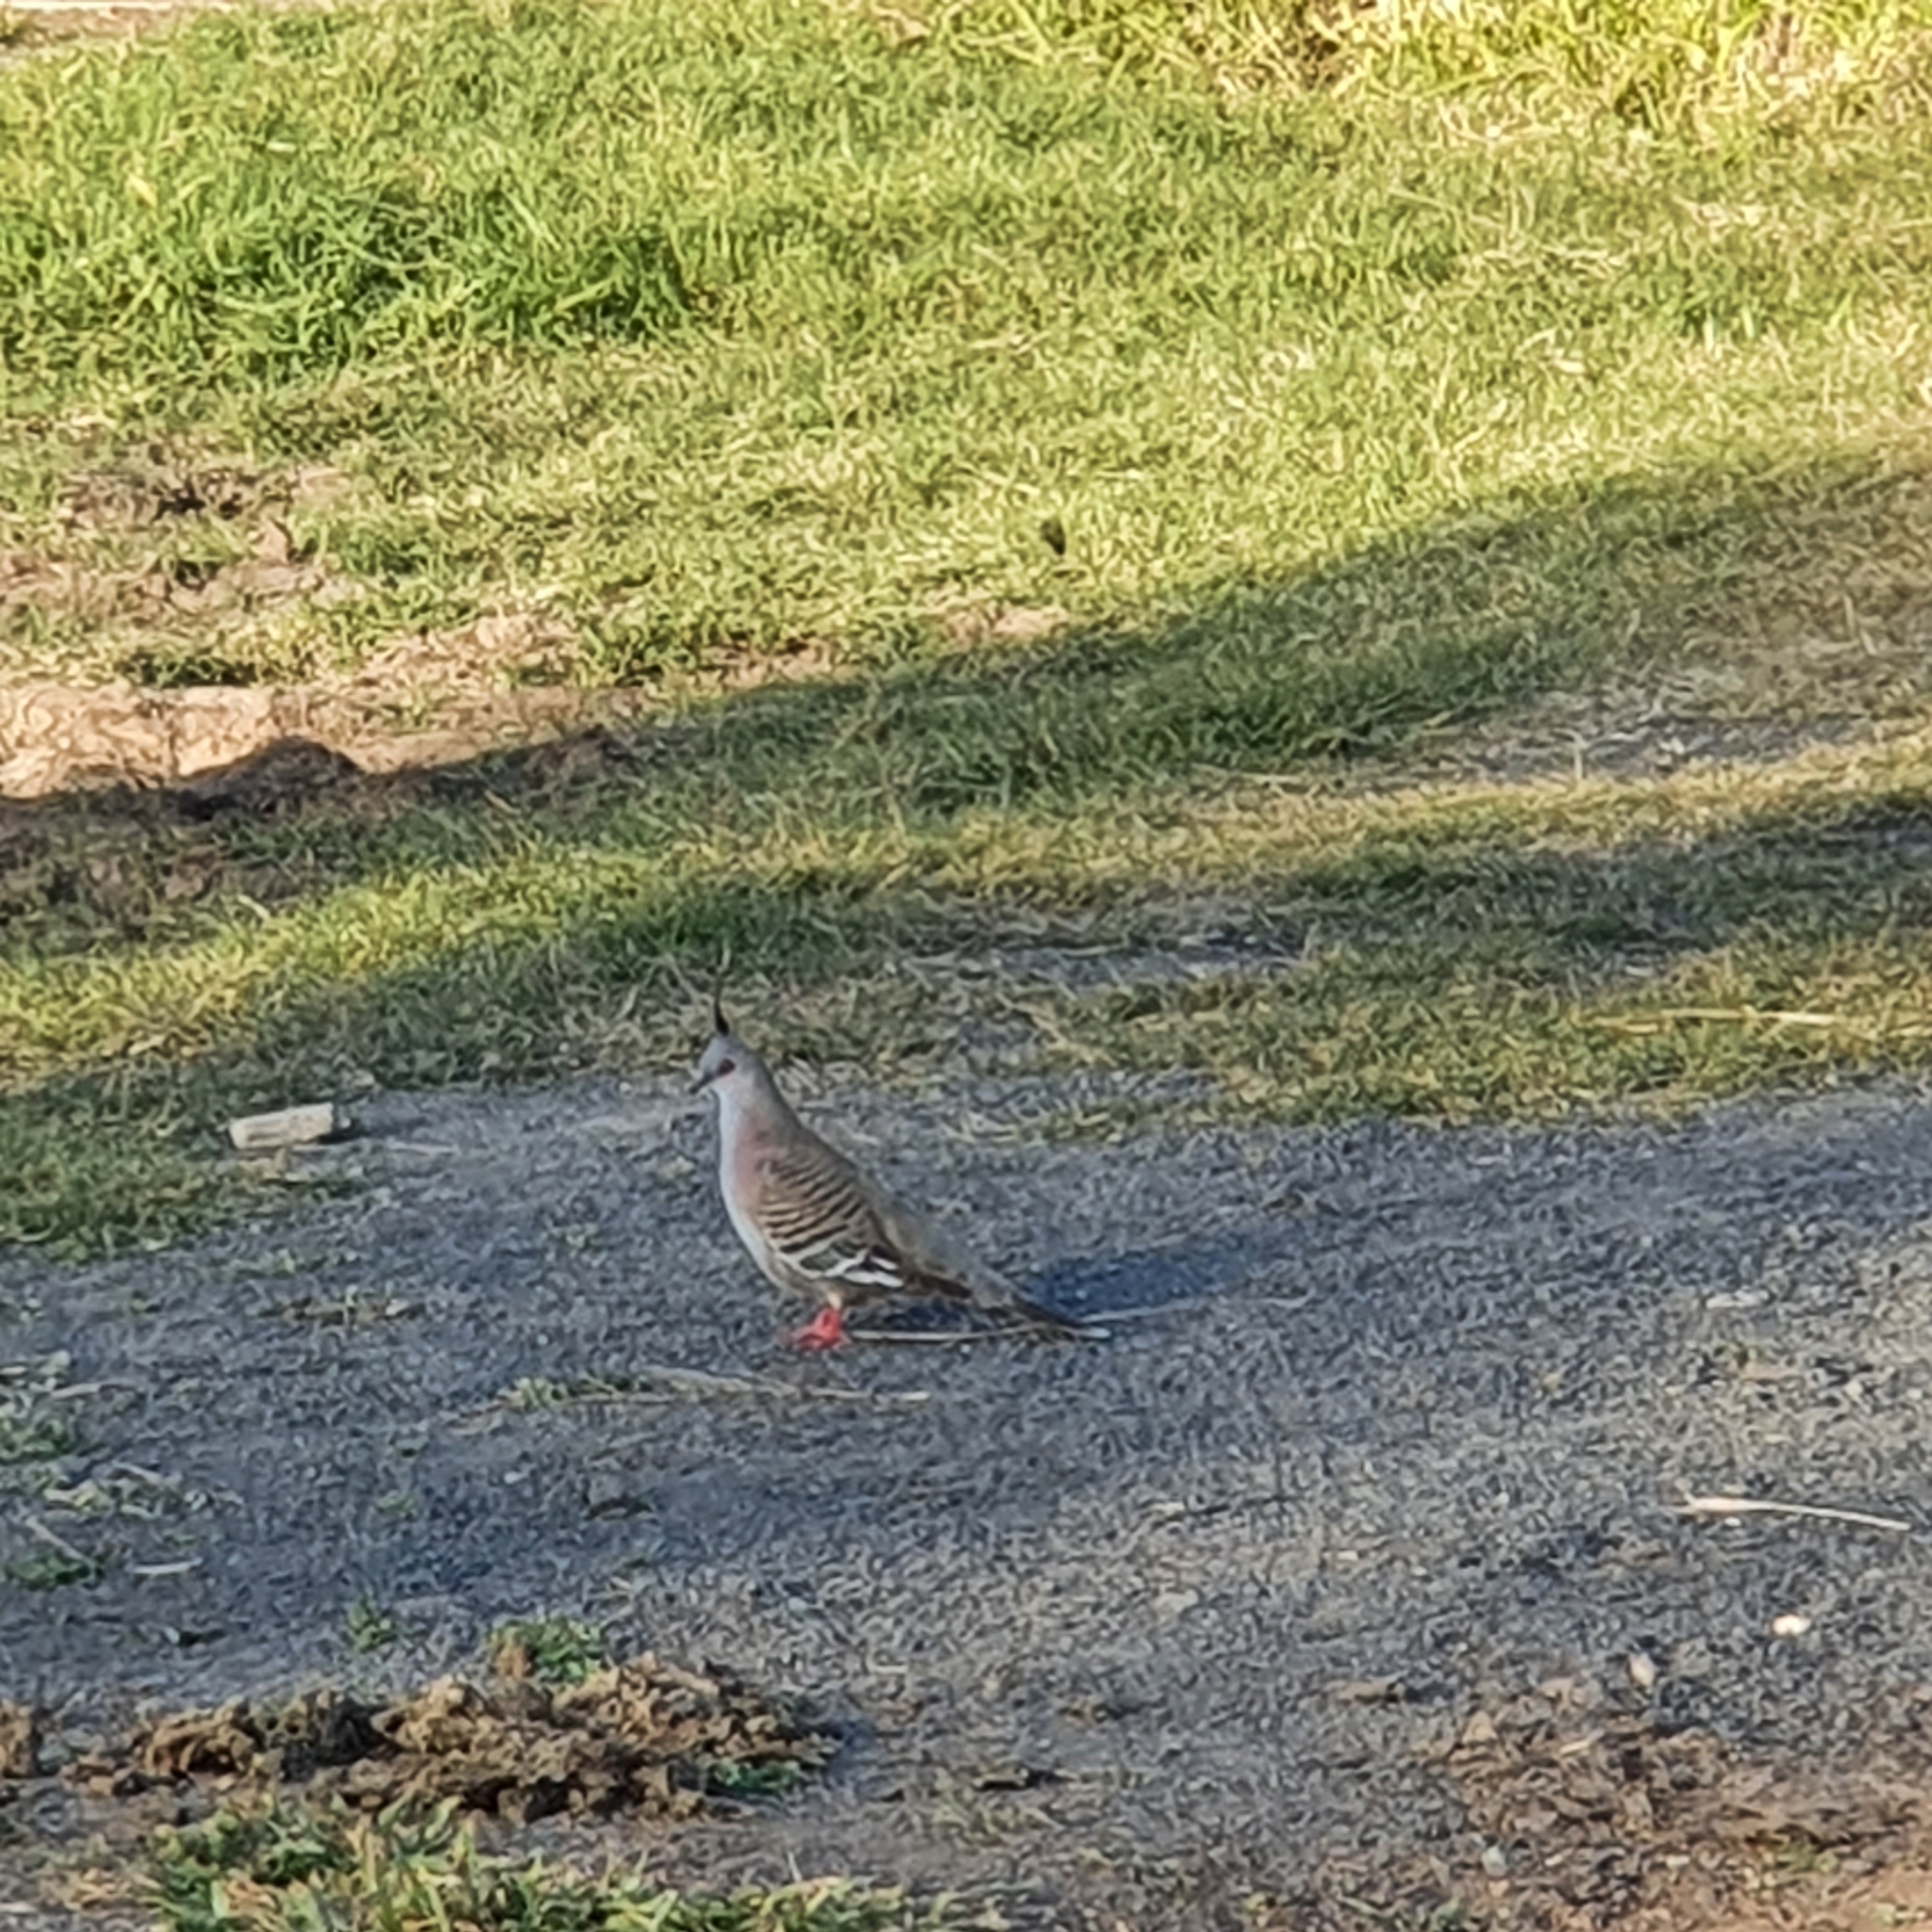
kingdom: Animalia
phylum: Chordata
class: Aves
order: Columbiformes
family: Columbidae
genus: Ocyphaps
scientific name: Ocyphaps lophotes
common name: Crested pigeon
